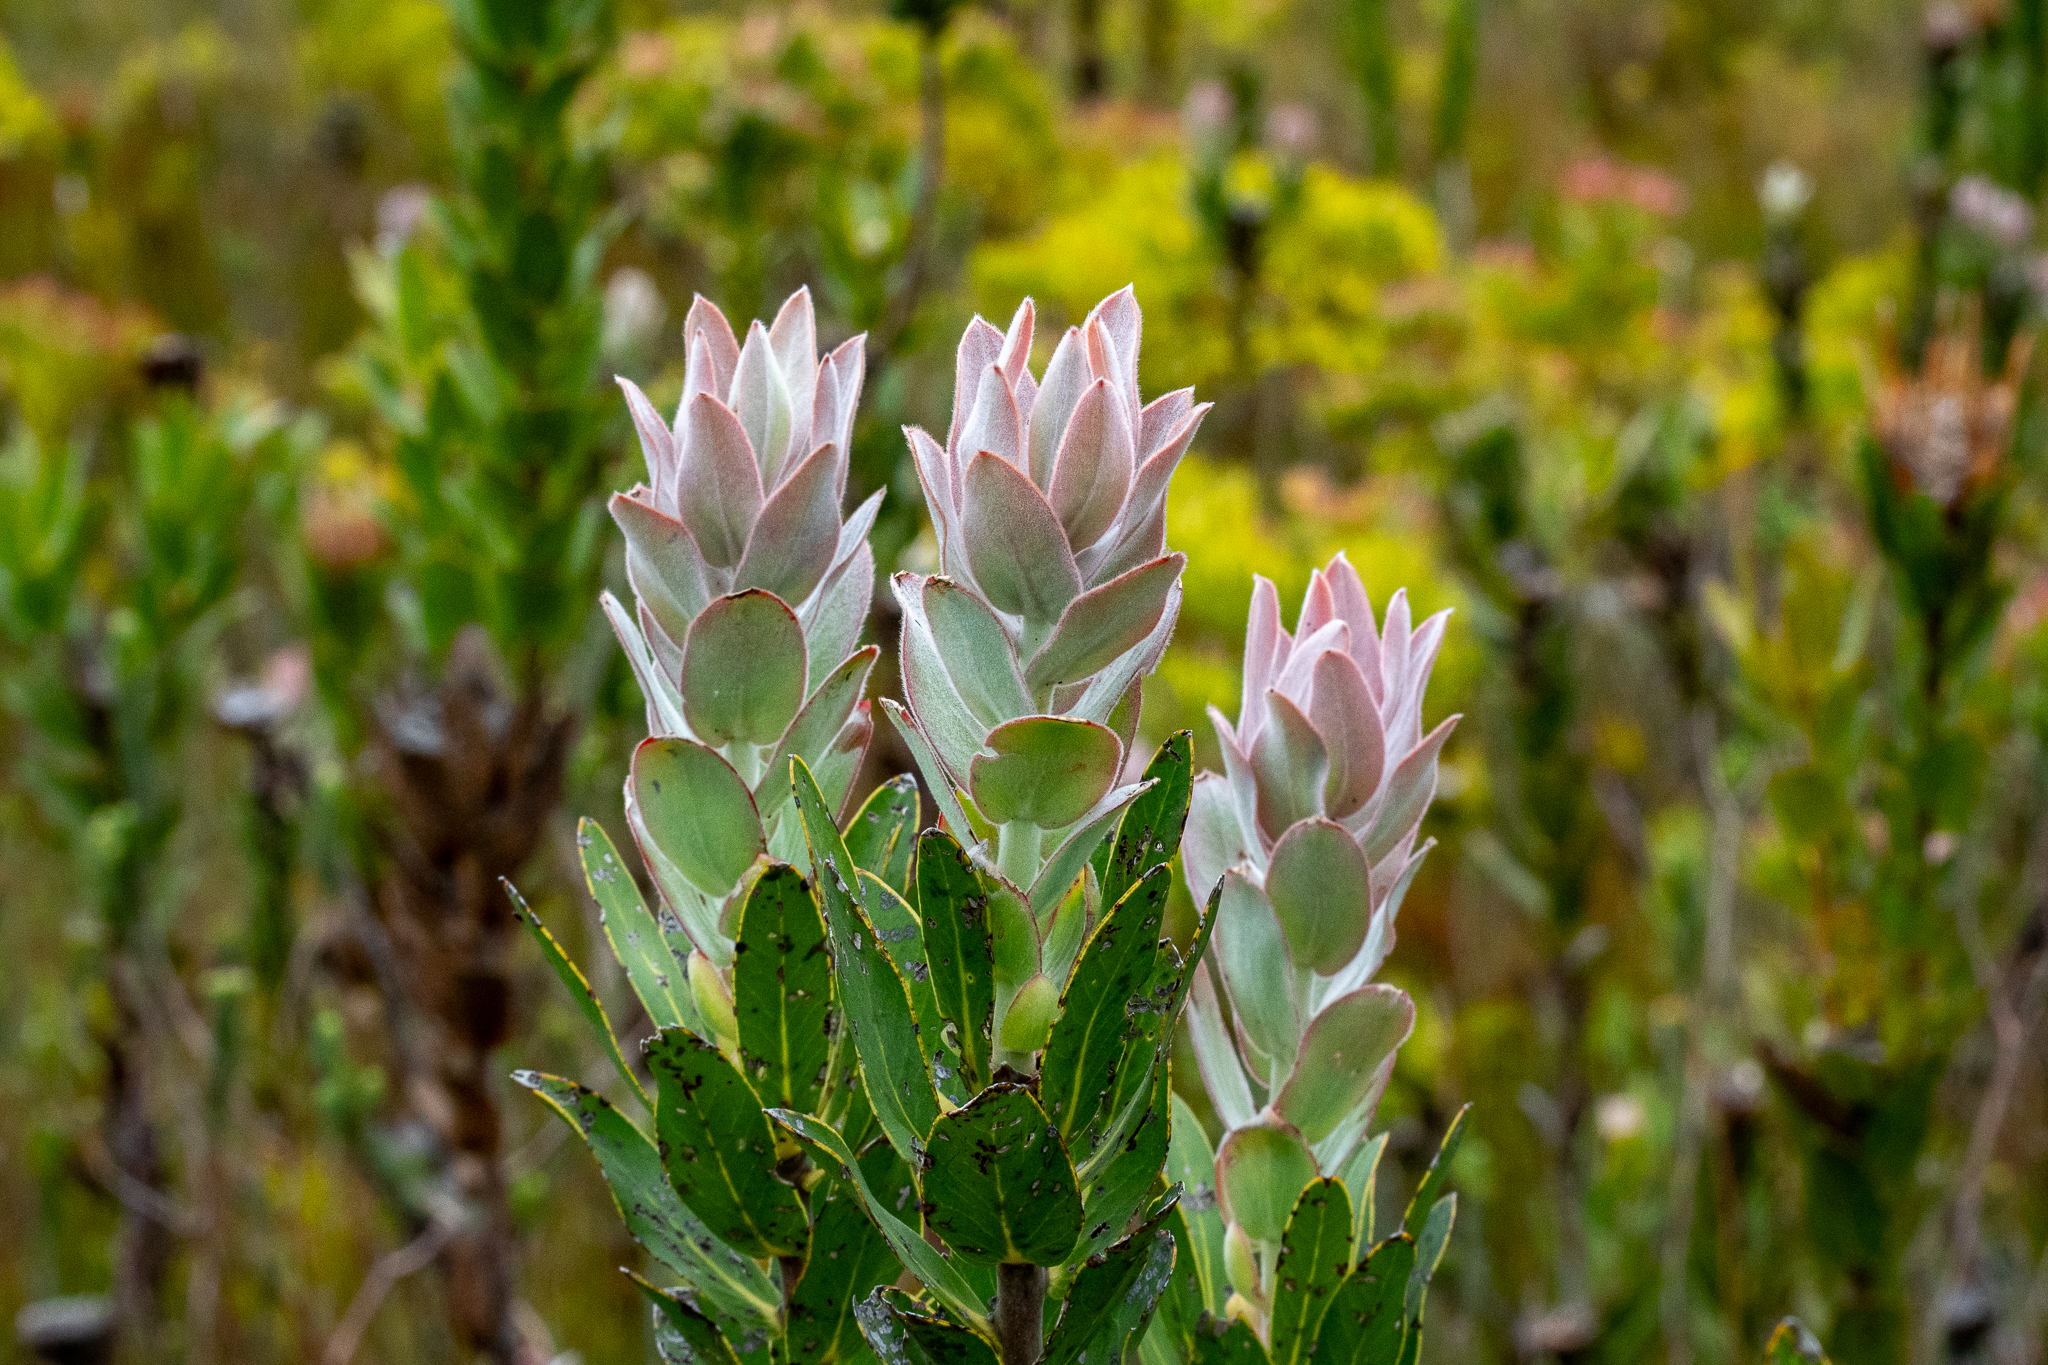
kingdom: Plantae
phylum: Tracheophyta
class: Magnoliopsida
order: Proteales
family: Proteaceae
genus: Protea
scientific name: Protea compacta
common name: Bot river protea
